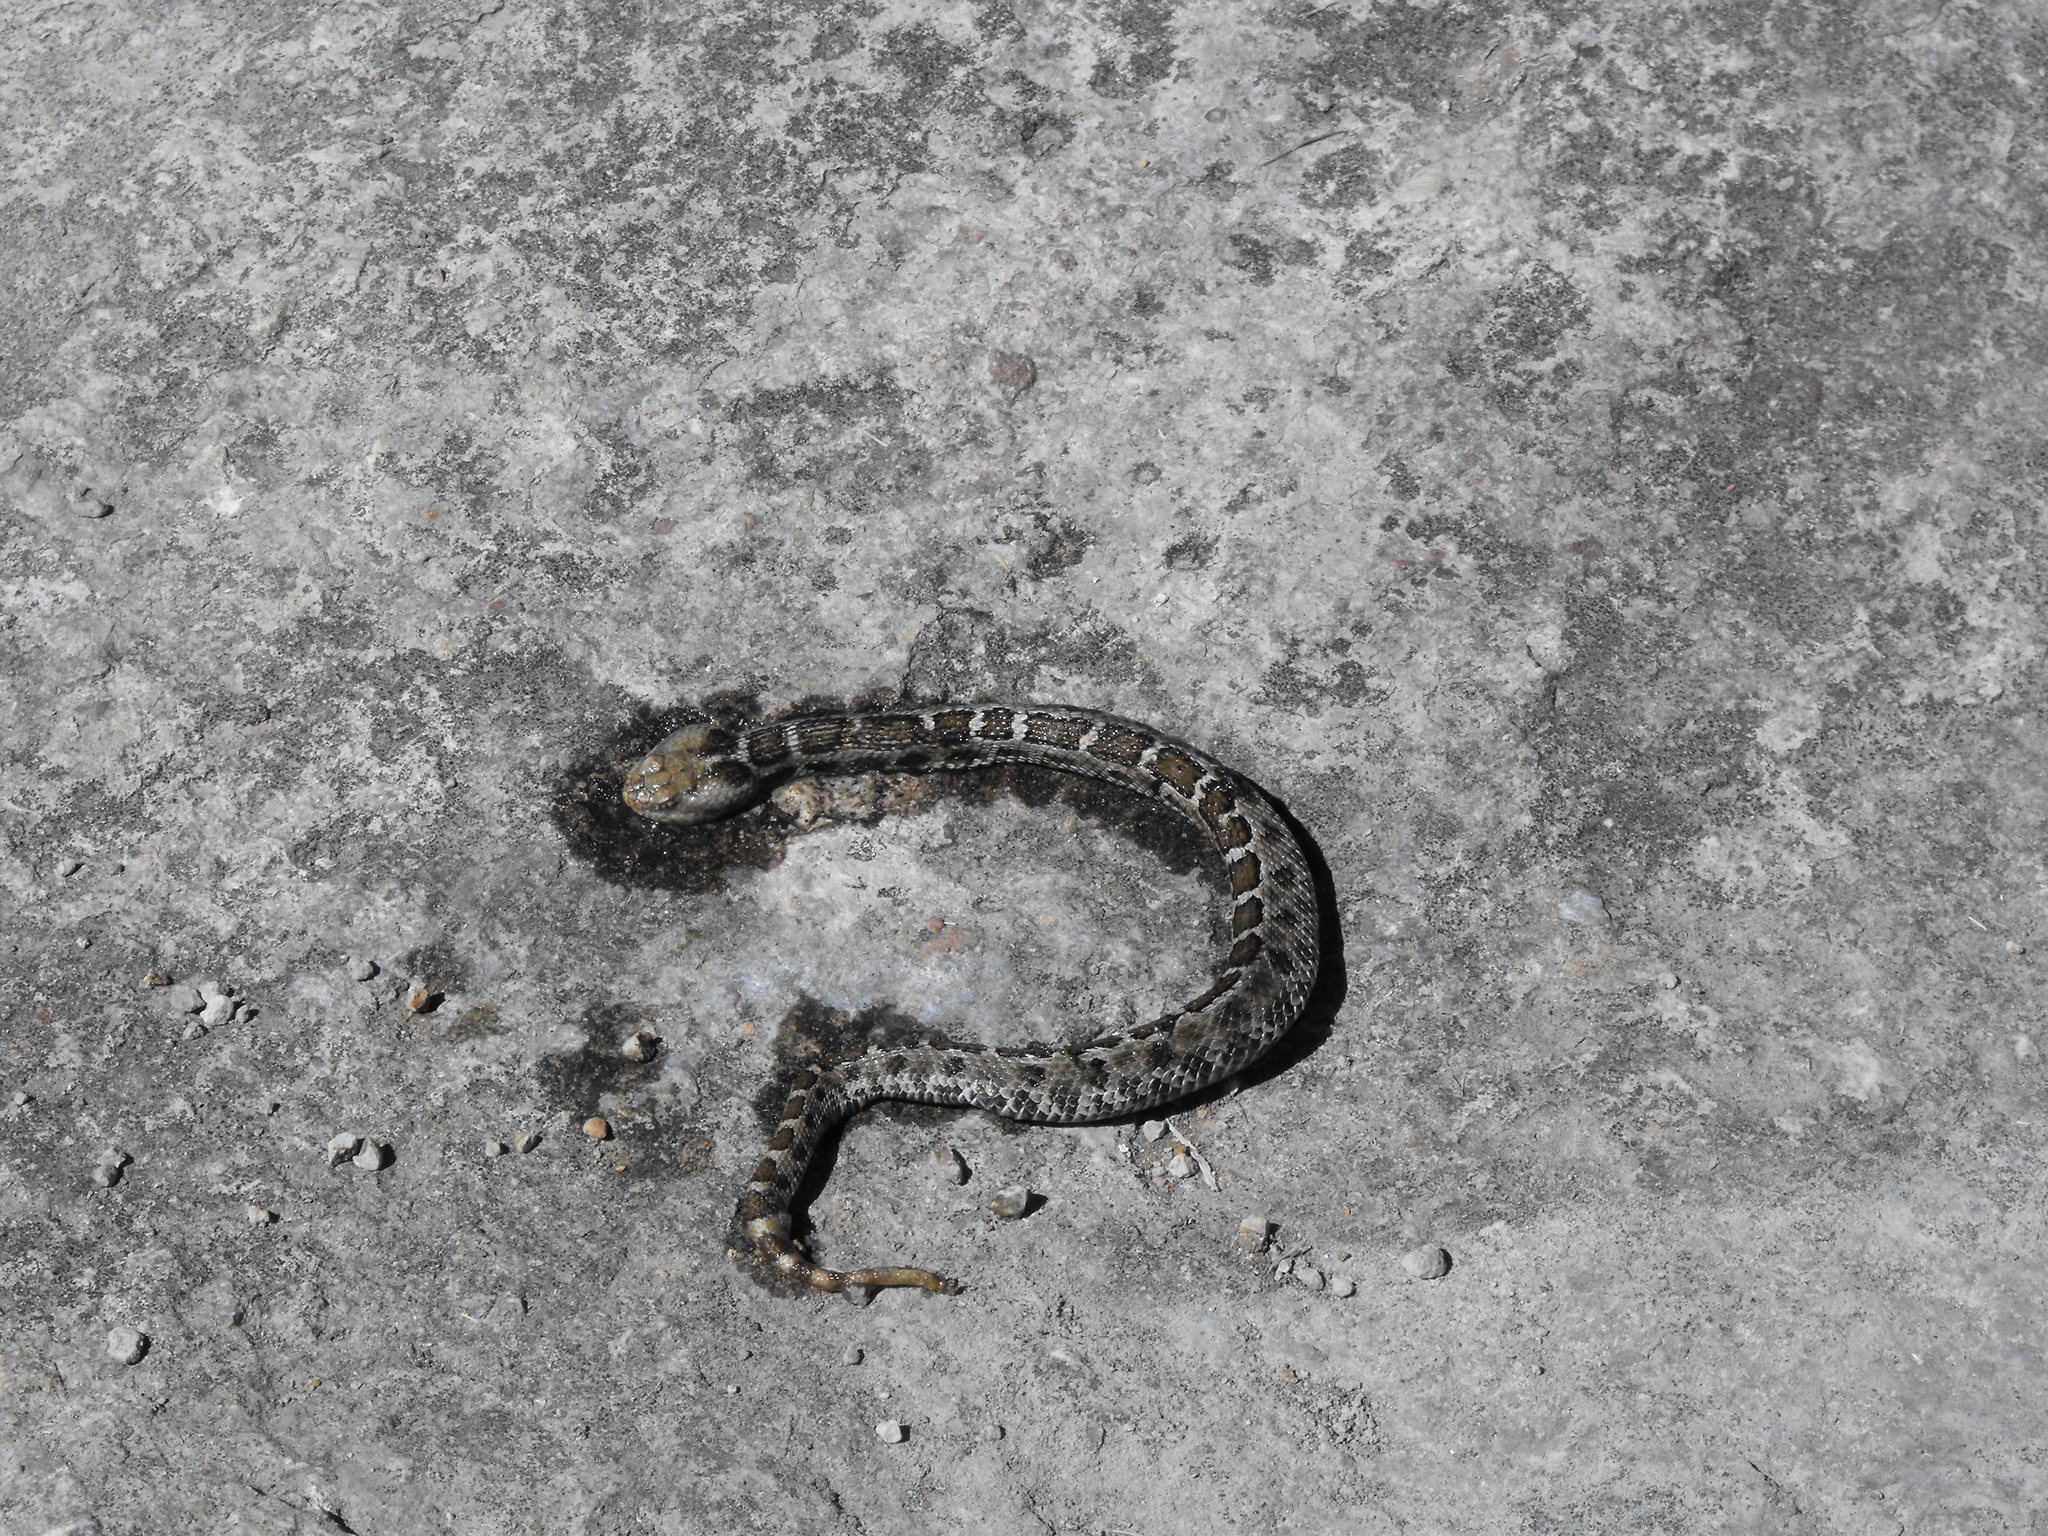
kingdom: Animalia
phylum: Chordata
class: Squamata
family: Viperidae
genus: Crotalus
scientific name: Crotalus
